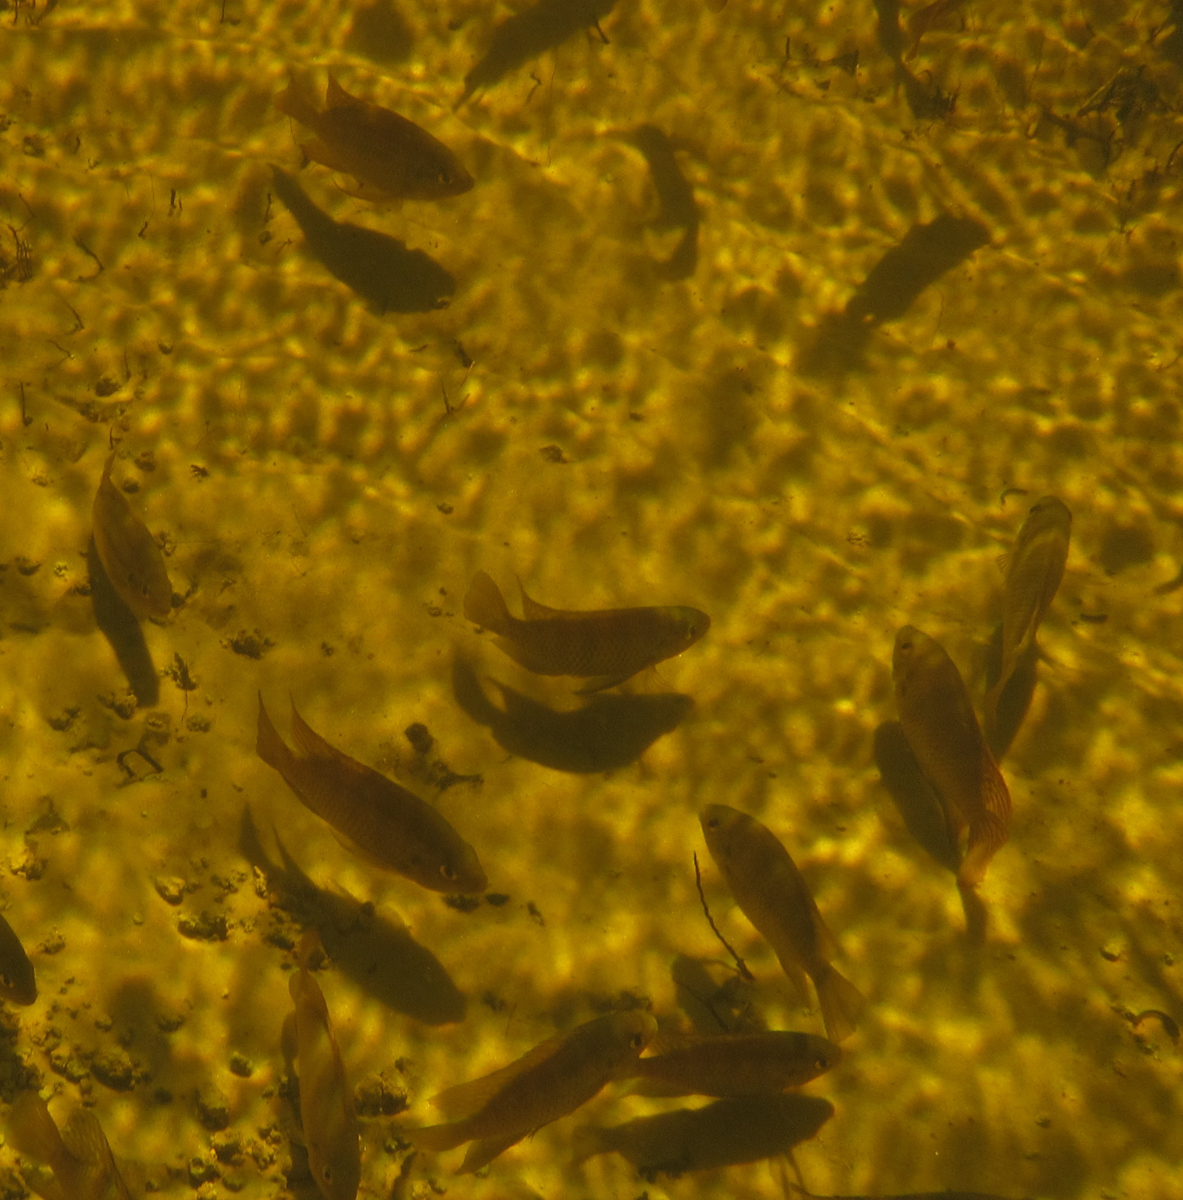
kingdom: Animalia
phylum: Chordata
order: Perciformes
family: Cichlidae
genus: Tilapia
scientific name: Tilapia sparrmanii
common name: Banded tilapia
